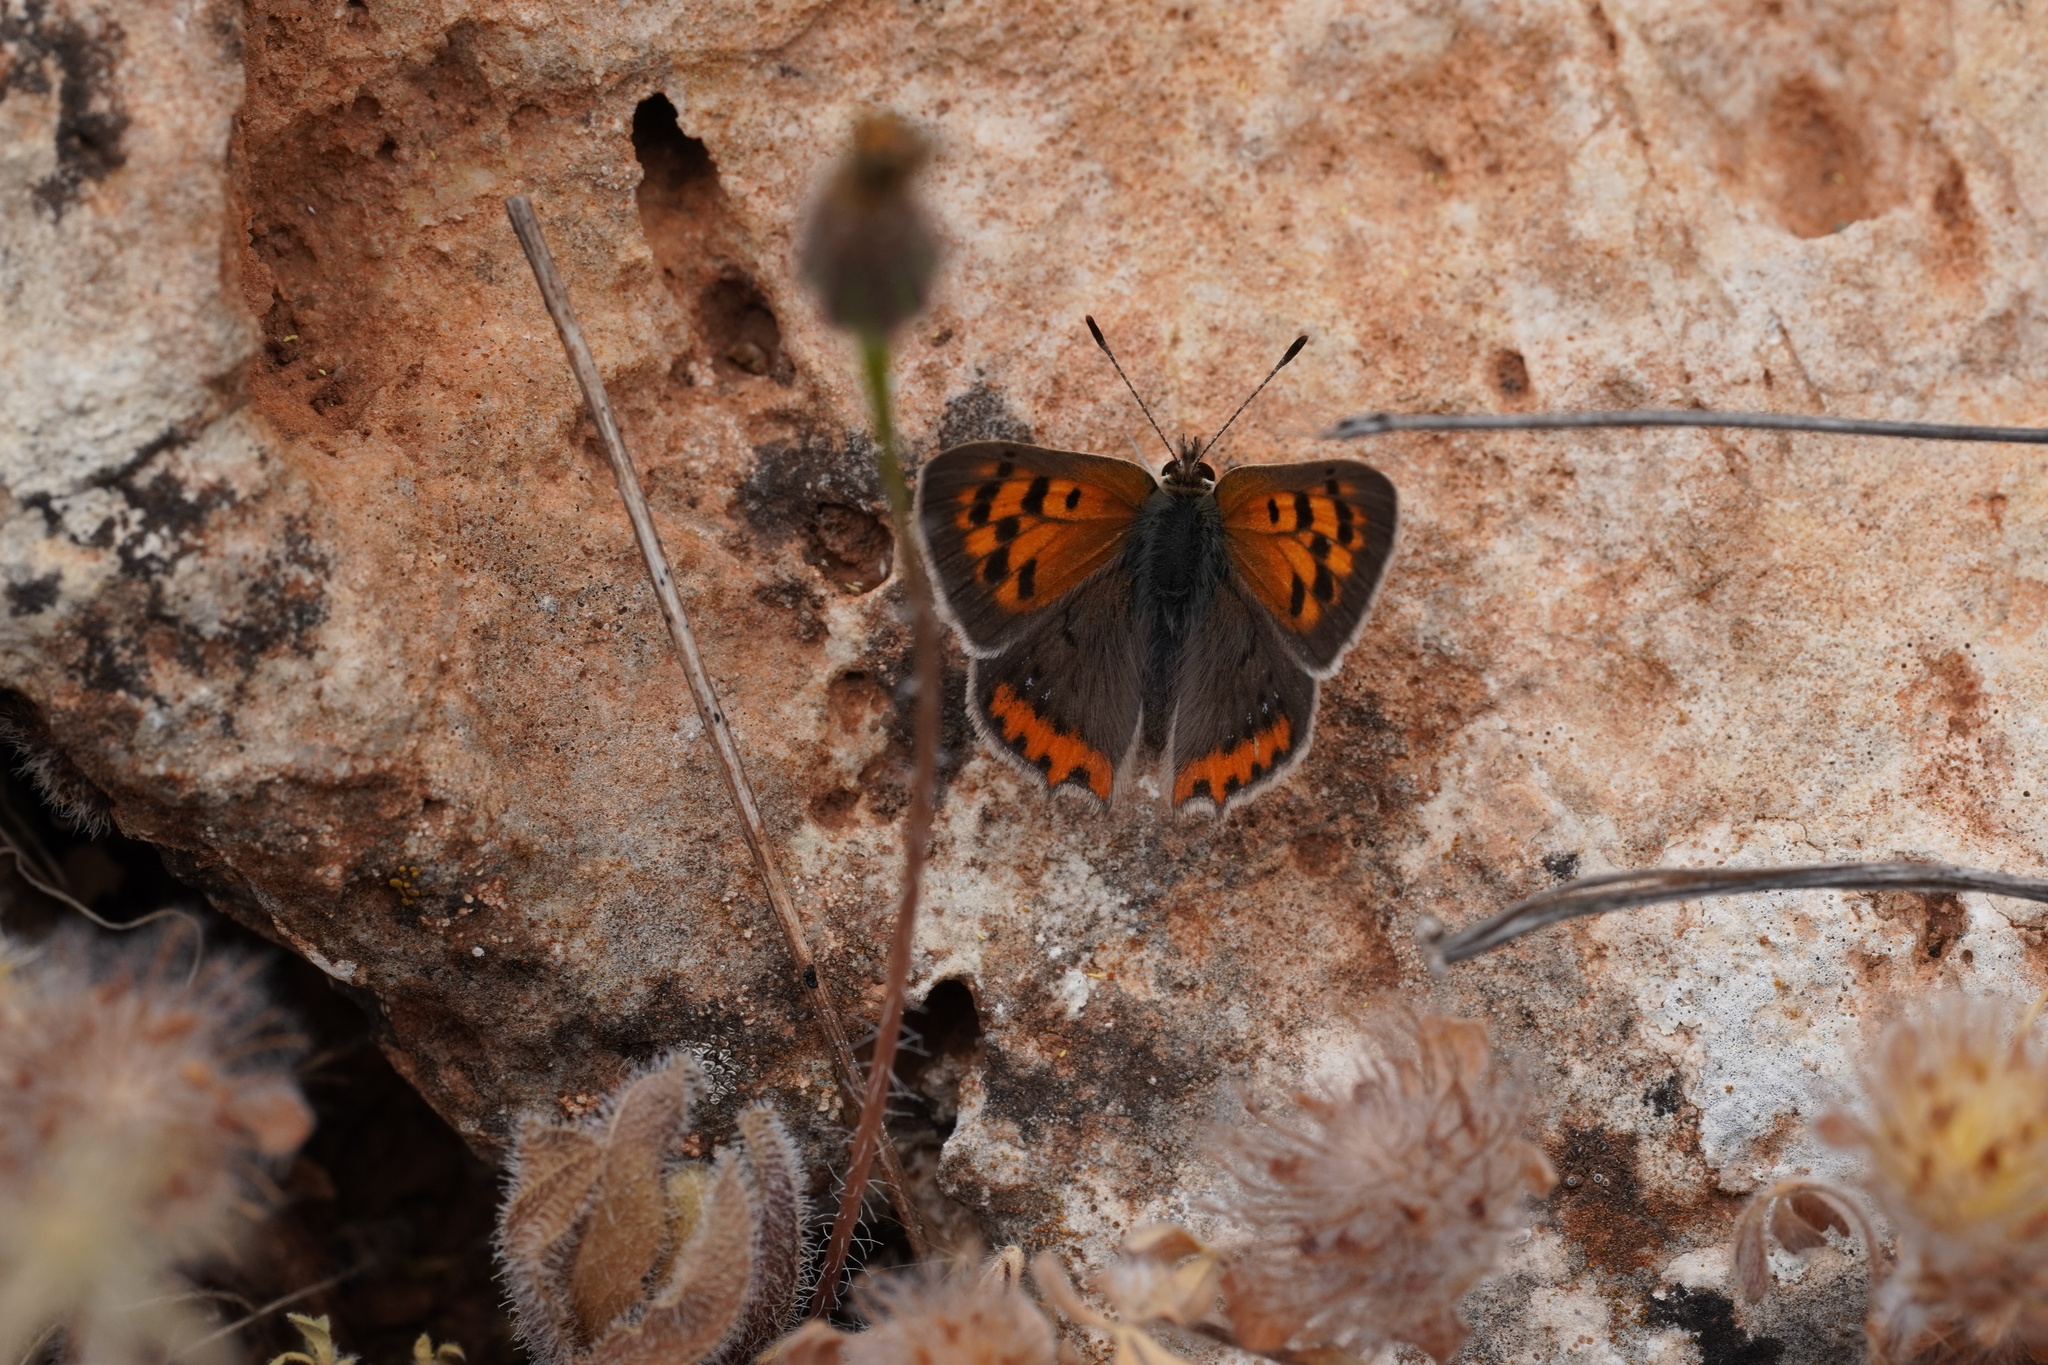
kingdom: Animalia
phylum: Arthropoda
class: Insecta
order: Lepidoptera
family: Lycaenidae
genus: Lycaena
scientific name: Lycaena phlaeas
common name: Small copper
